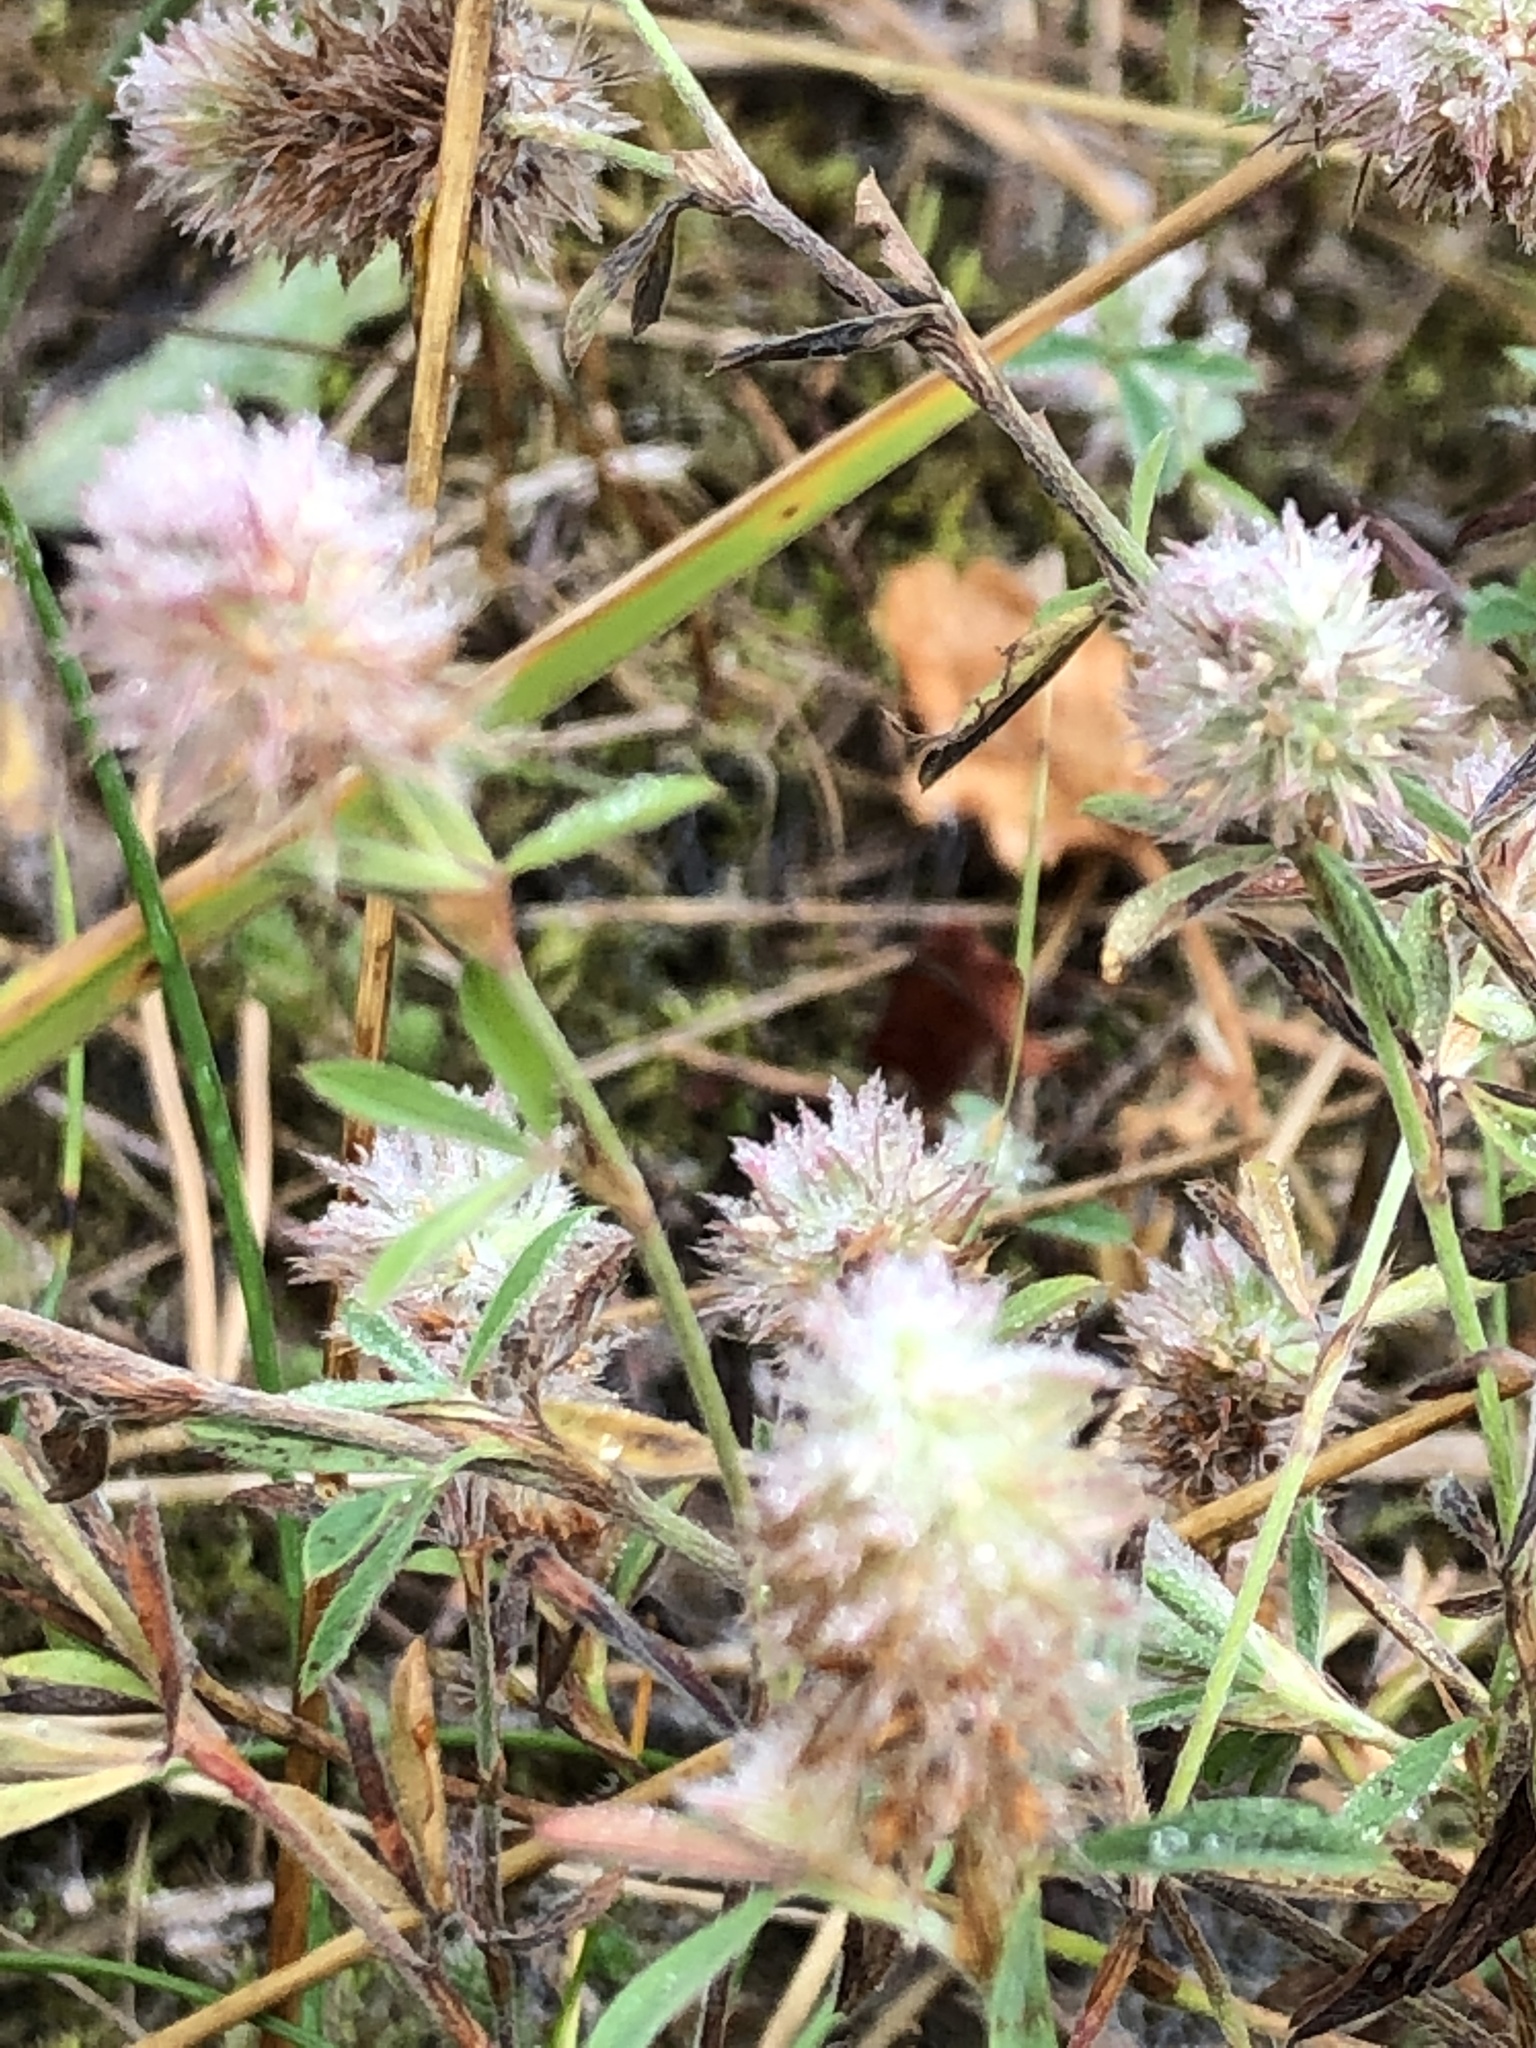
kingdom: Plantae
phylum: Tracheophyta
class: Magnoliopsida
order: Fabales
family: Fabaceae
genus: Trifolium
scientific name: Trifolium arvense
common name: Hare's-foot clover
